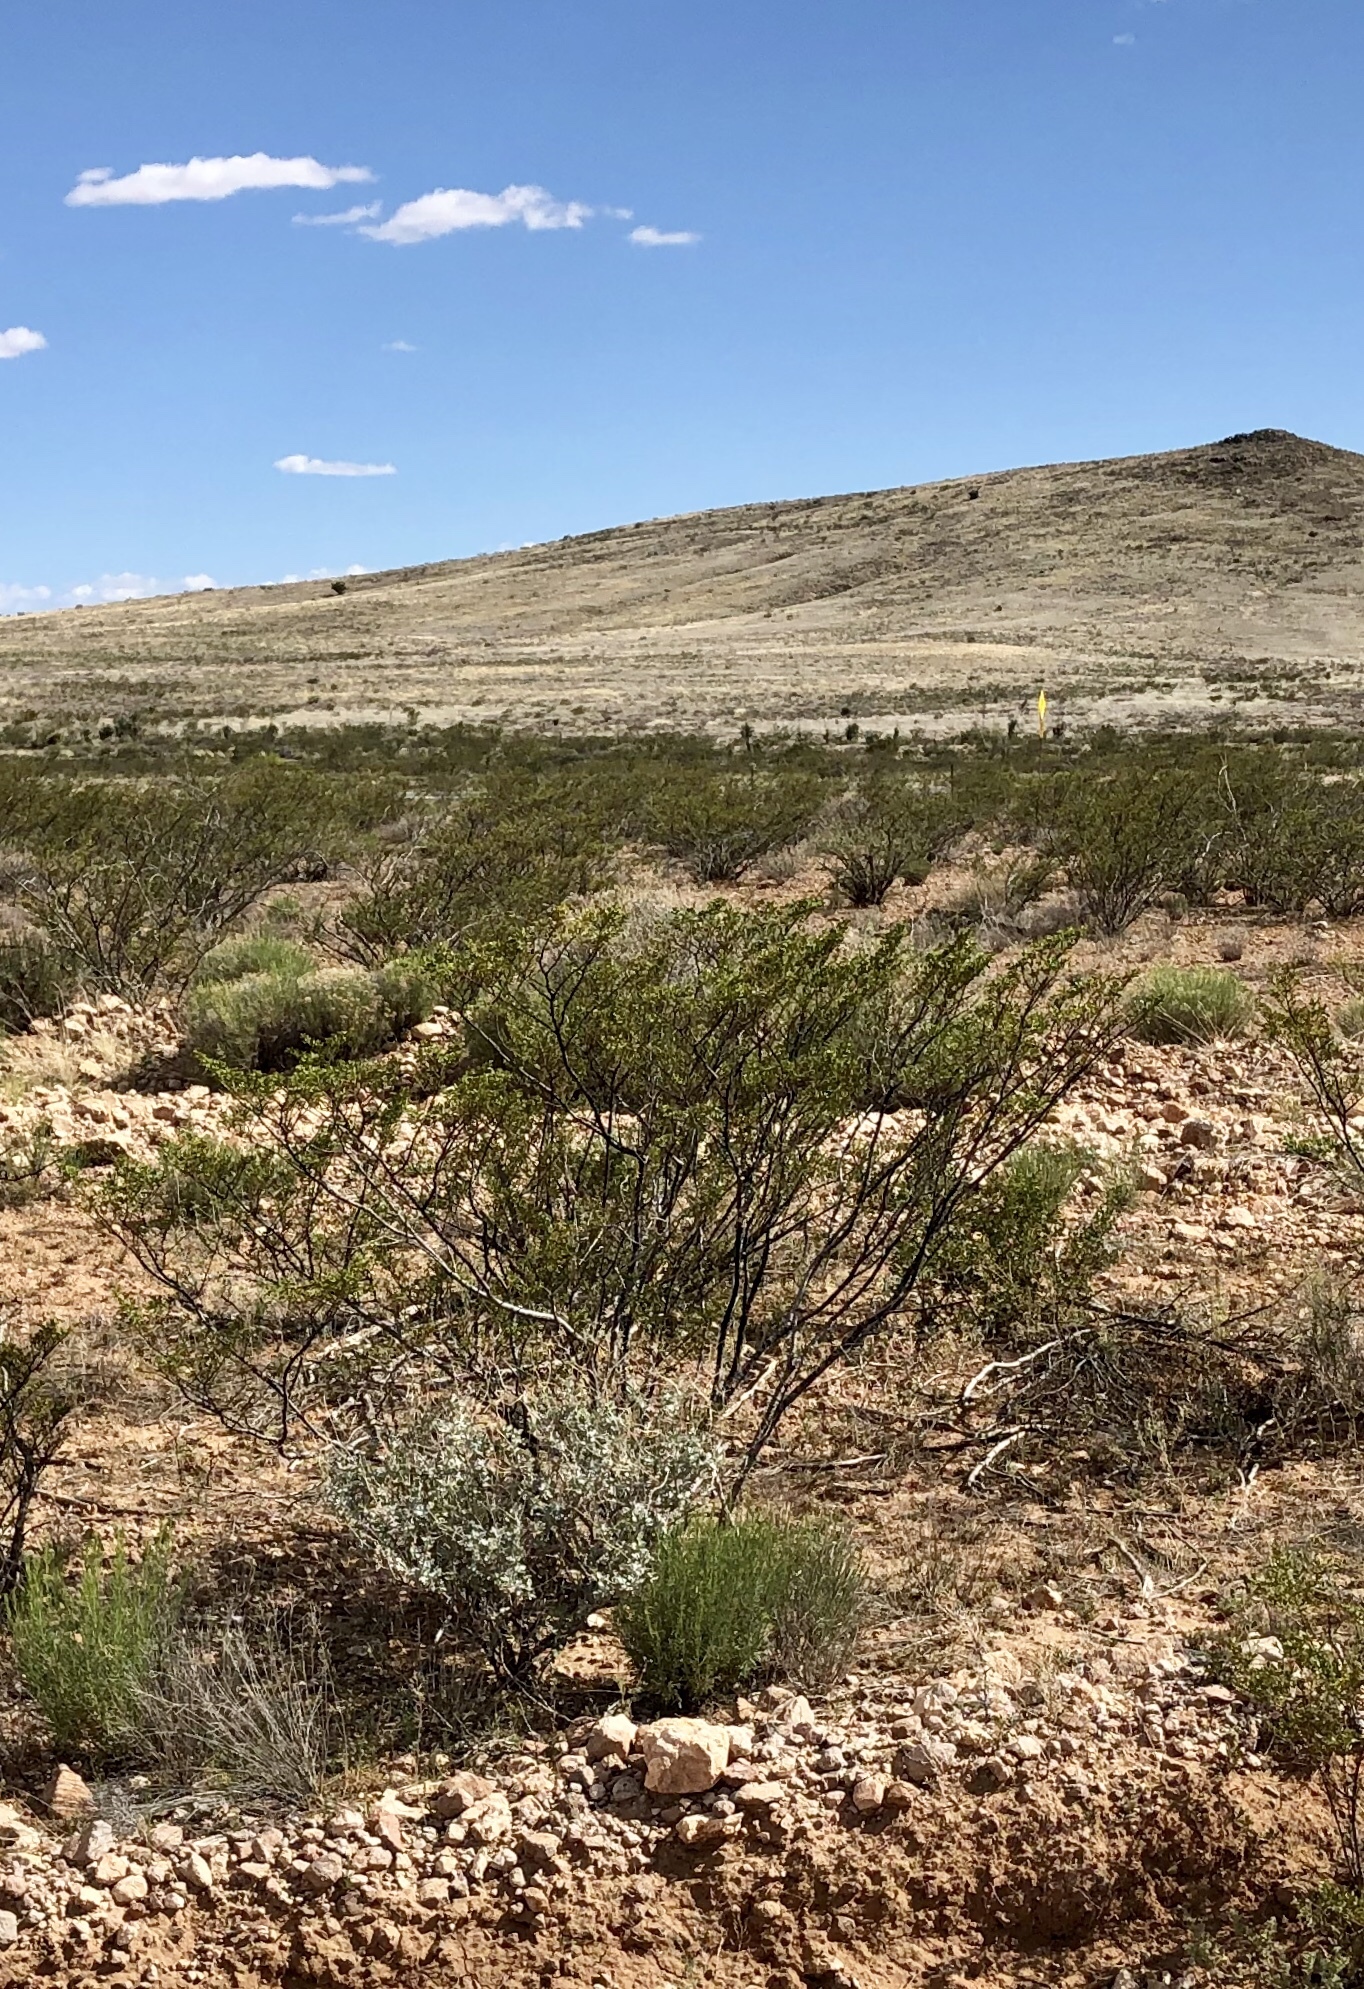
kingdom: Plantae
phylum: Tracheophyta
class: Magnoliopsida
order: Zygophyllales
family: Zygophyllaceae
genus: Larrea
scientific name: Larrea tridentata
